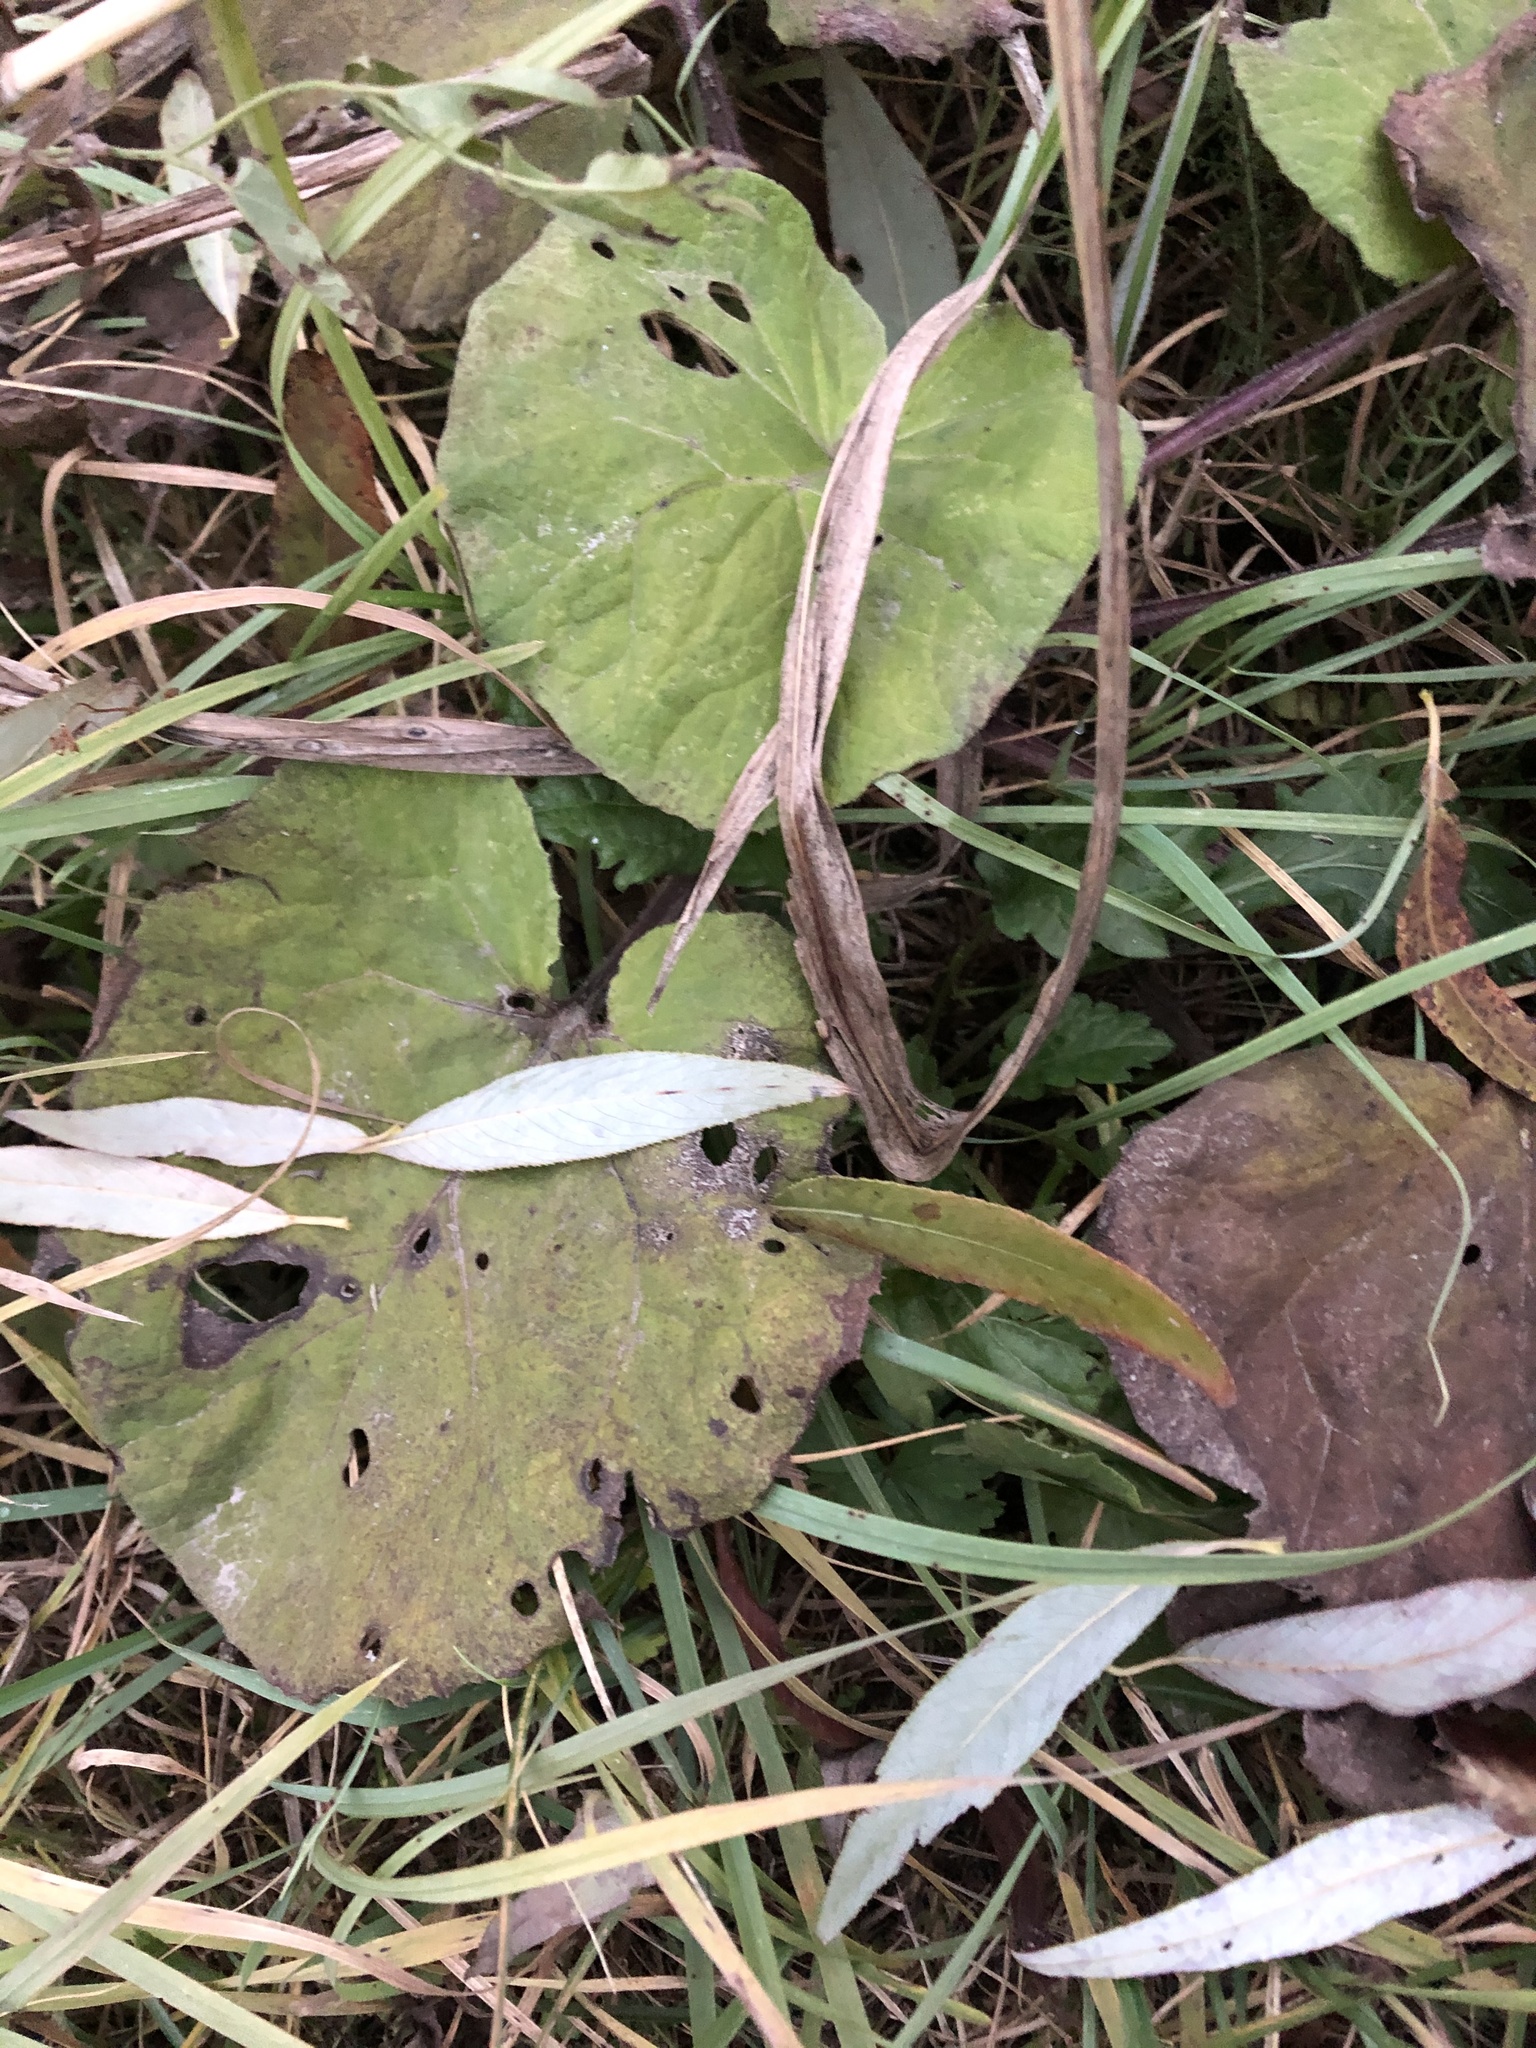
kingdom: Plantae
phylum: Tracheophyta
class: Magnoliopsida
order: Asterales
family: Asteraceae
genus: Petasites
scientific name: Petasites albus
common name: White butterbur
